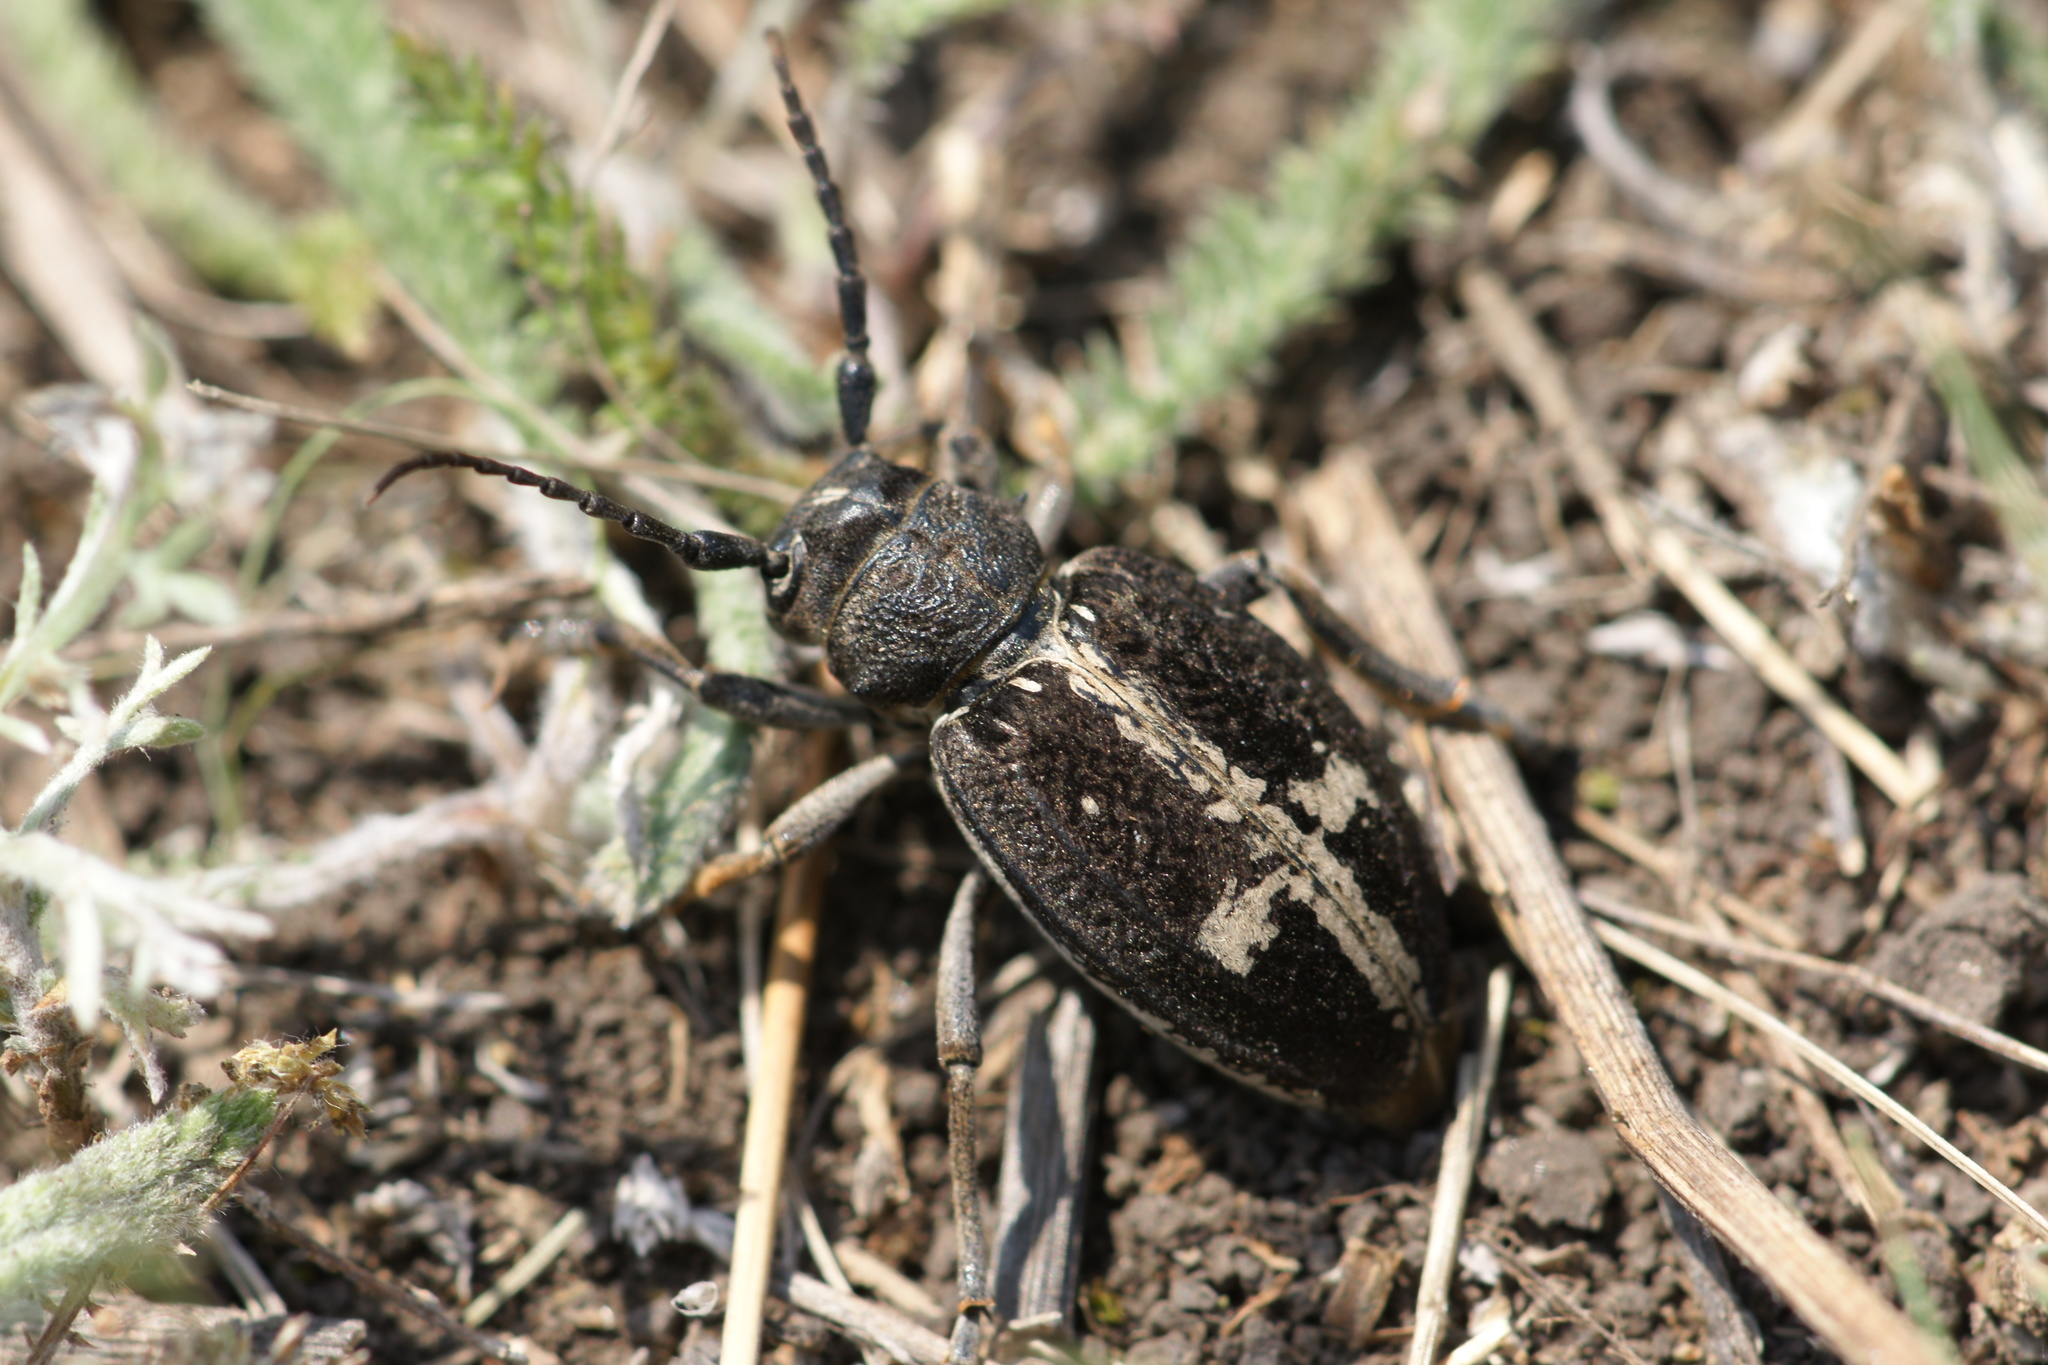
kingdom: Animalia
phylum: Arthropoda
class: Insecta
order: Coleoptera
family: Cerambycidae
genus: Dorcadion
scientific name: Dorcadion equestre
